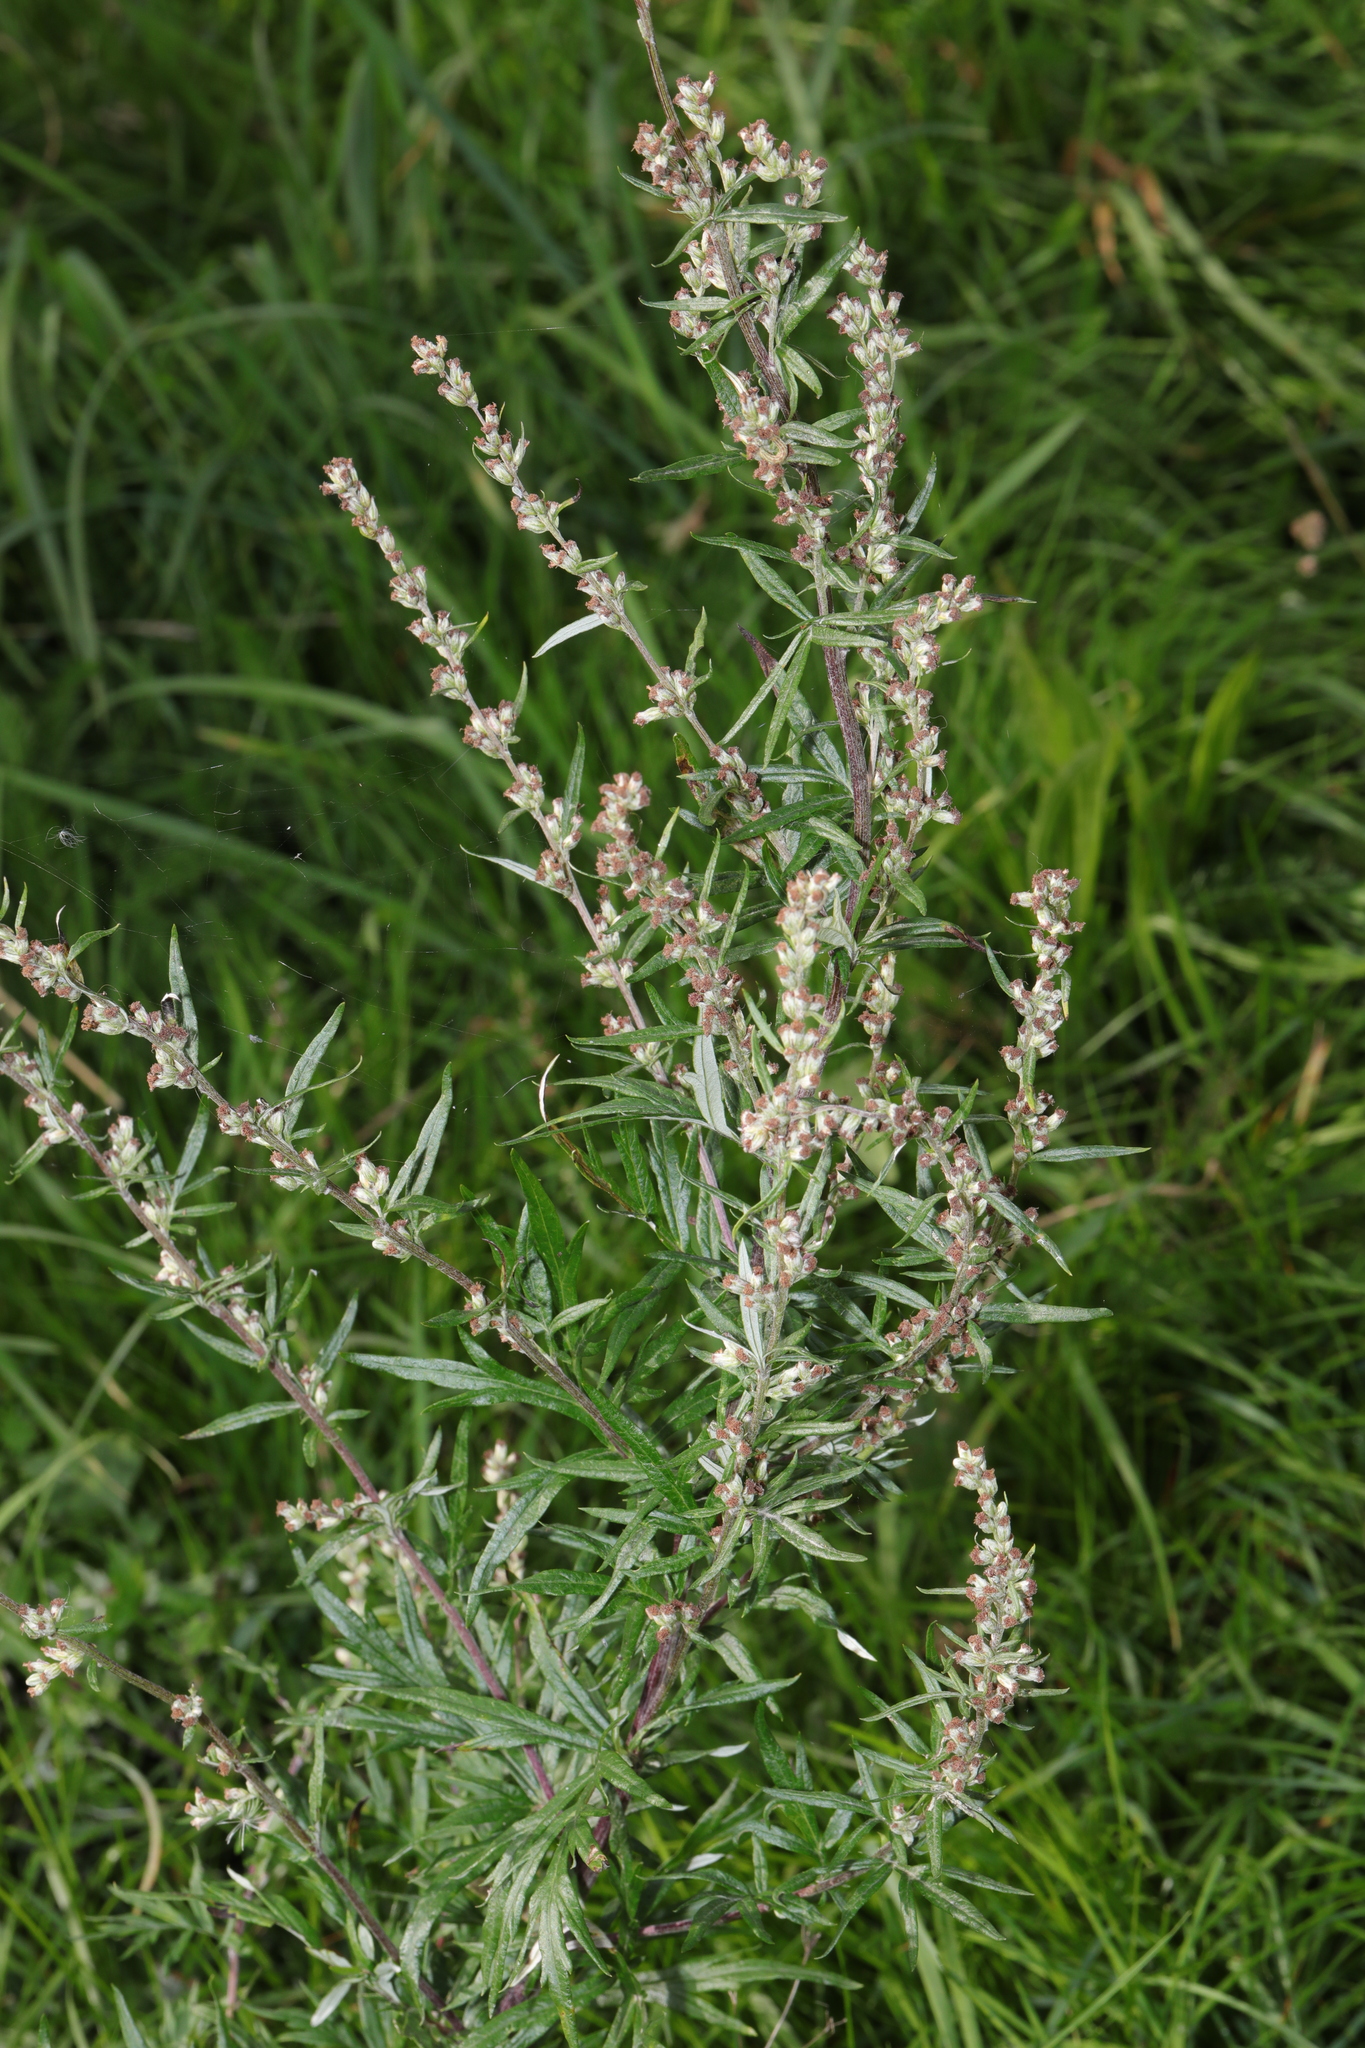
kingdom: Plantae
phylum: Tracheophyta
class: Magnoliopsida
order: Asterales
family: Asteraceae
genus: Artemisia
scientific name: Artemisia vulgaris
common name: Mugwort
